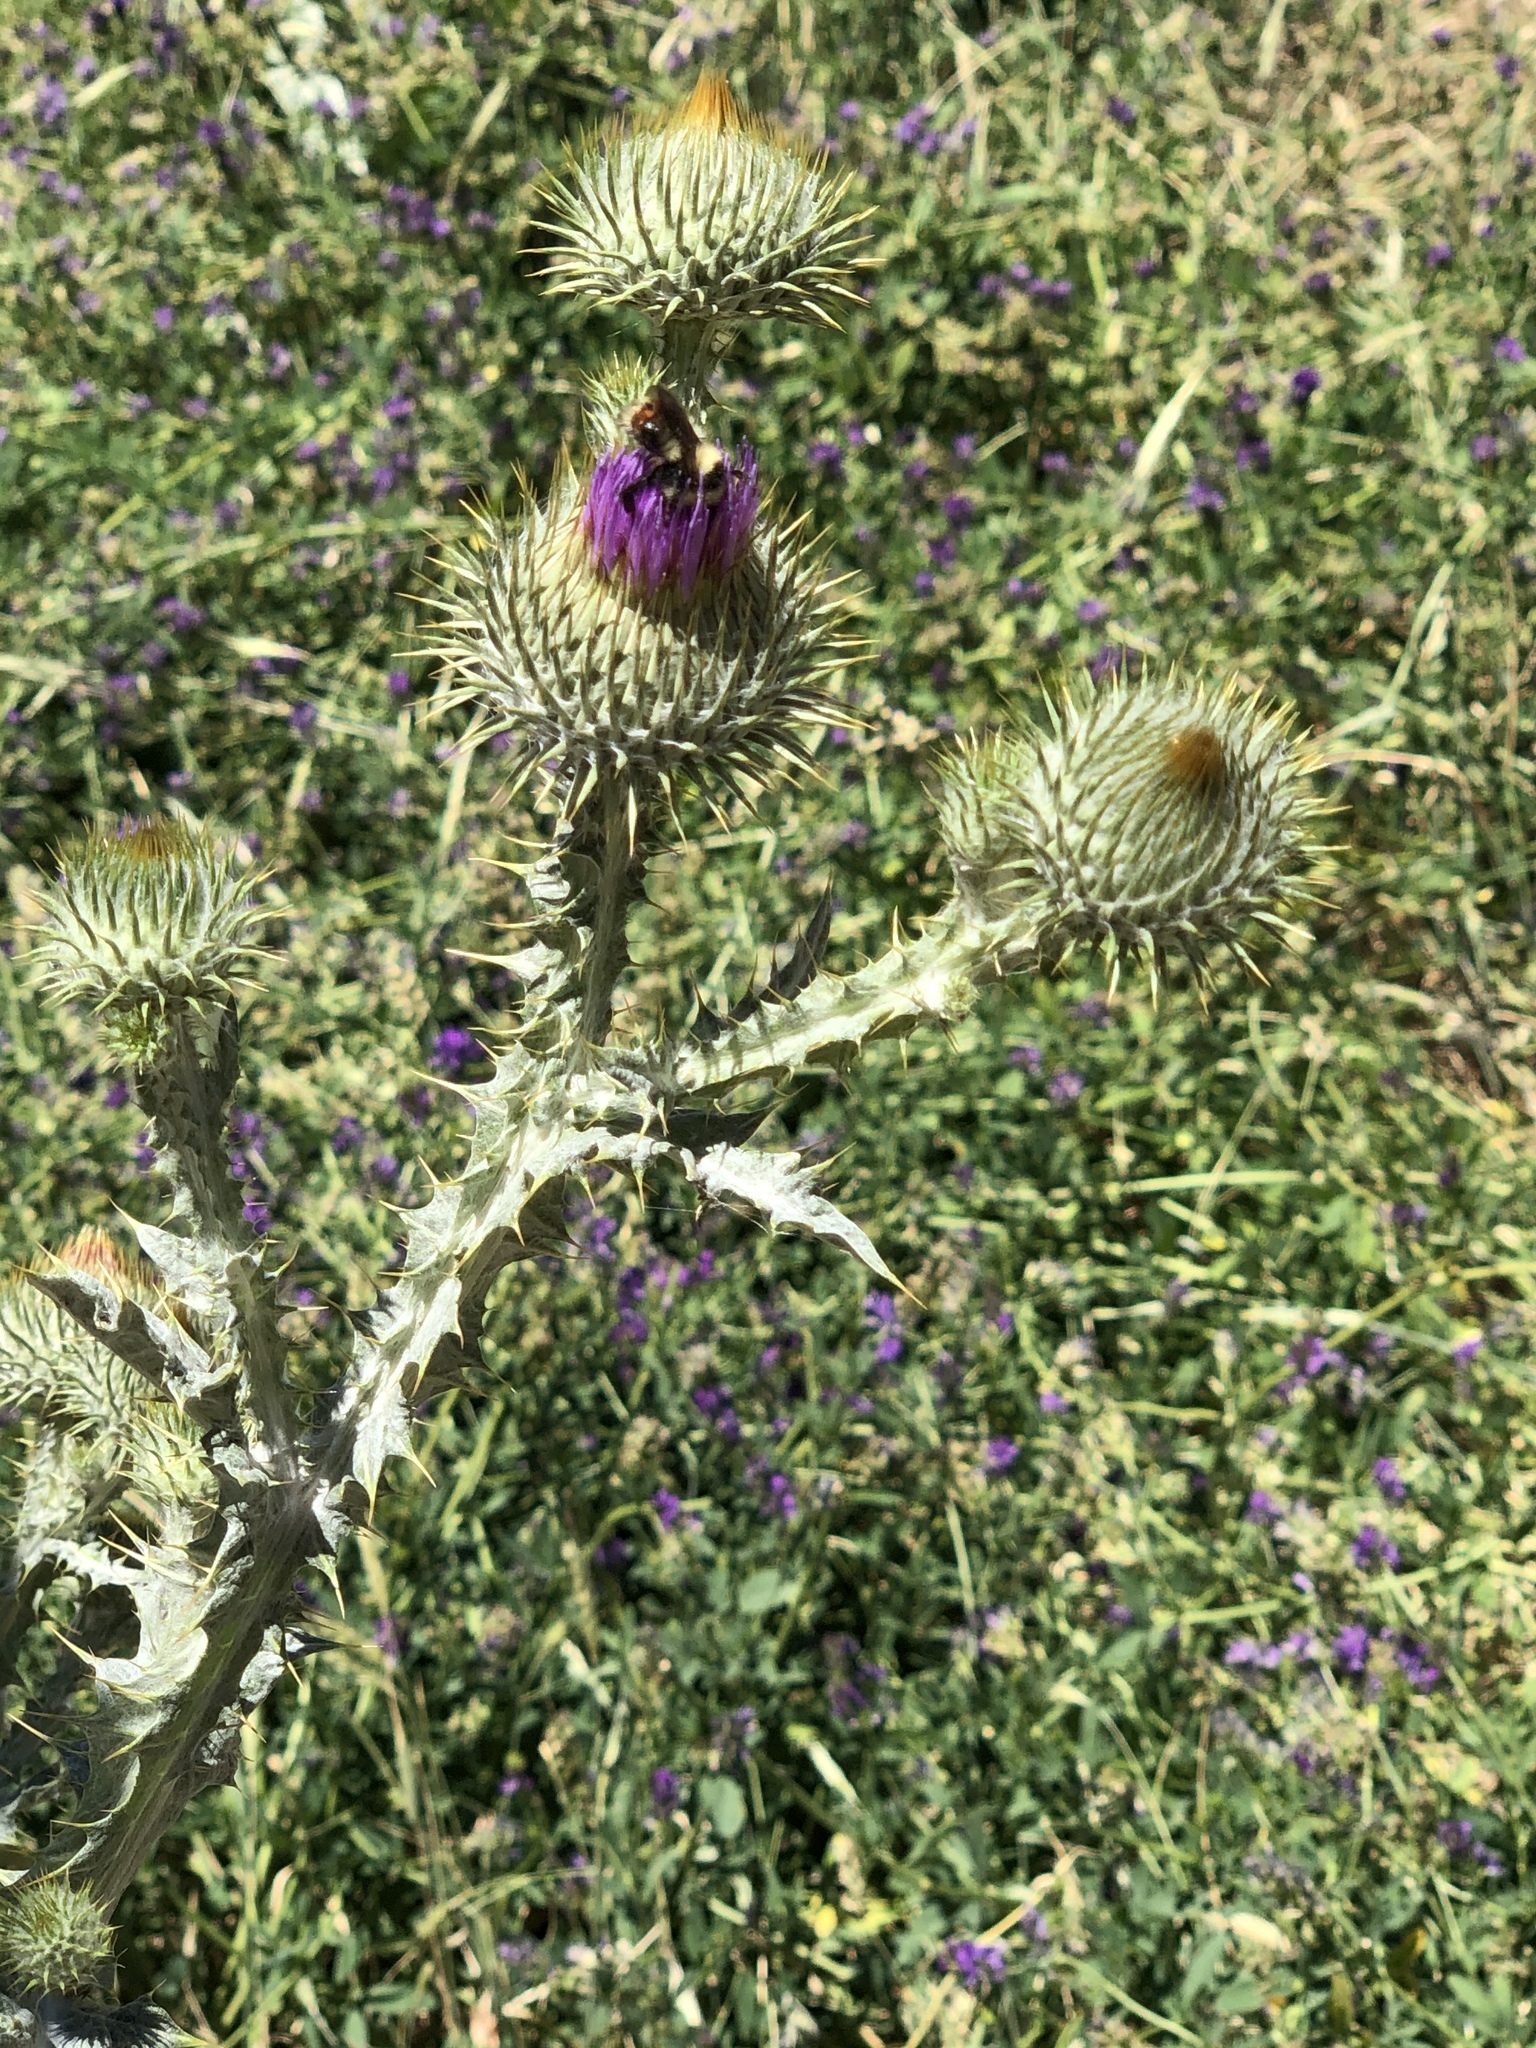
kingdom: Animalia
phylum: Arthropoda
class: Insecta
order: Hymenoptera
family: Apidae
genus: Pyrobombus
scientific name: Pyrobombus
